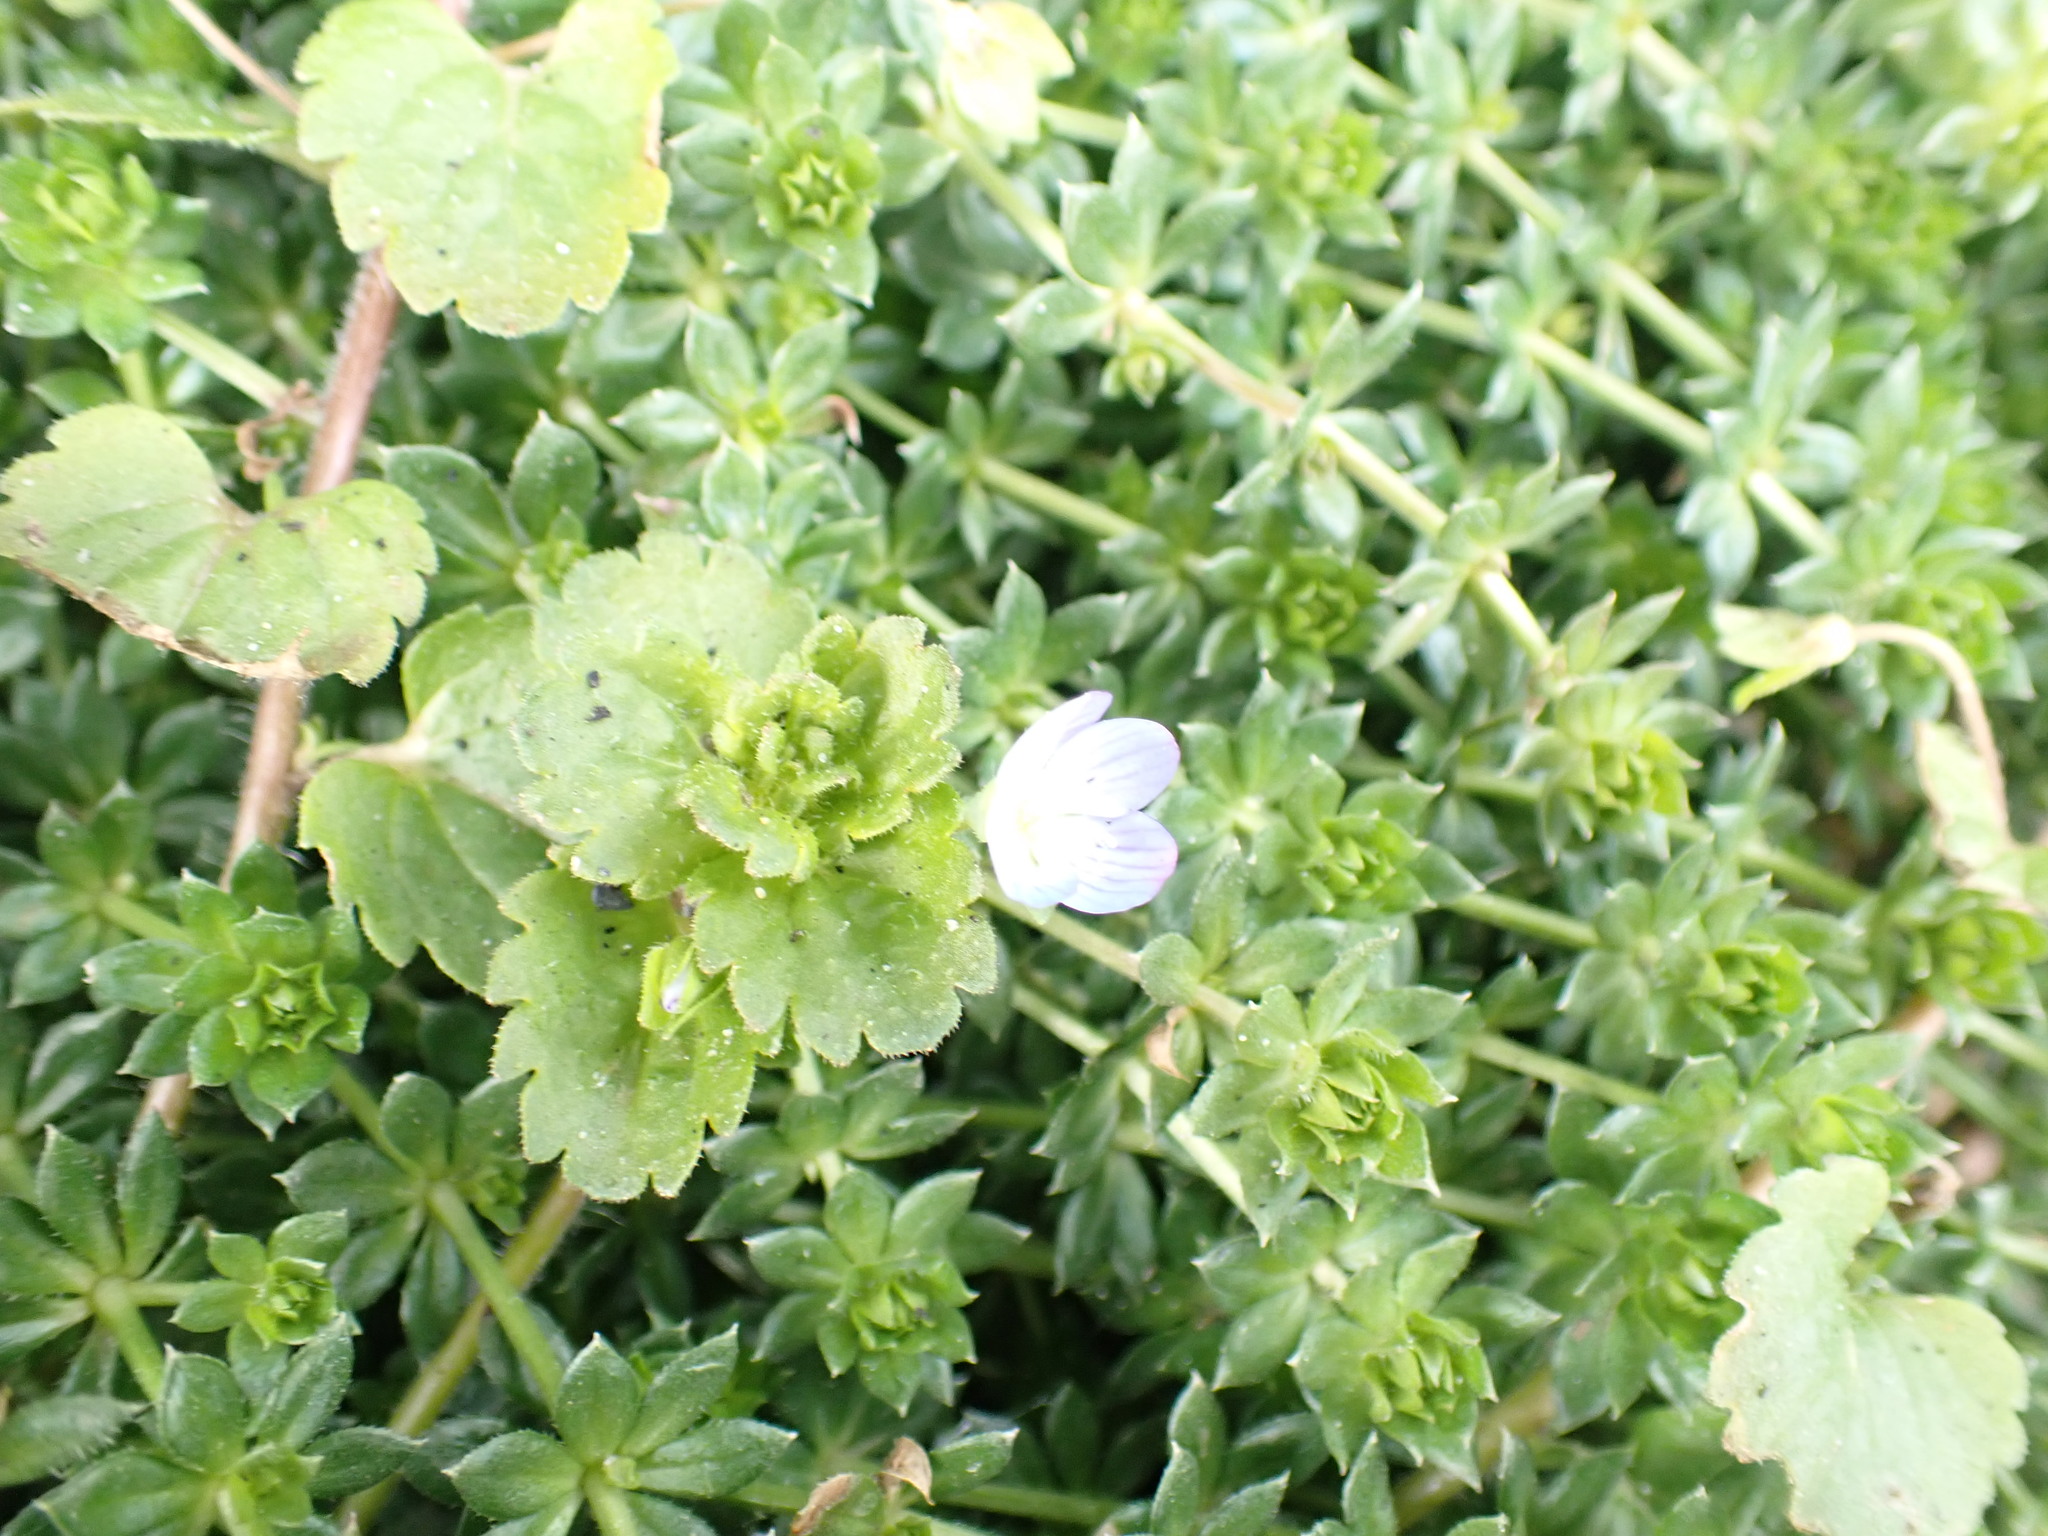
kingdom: Plantae
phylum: Tracheophyta
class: Magnoliopsida
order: Lamiales
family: Plantaginaceae
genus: Veronica
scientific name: Veronica persica
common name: Common field-speedwell
